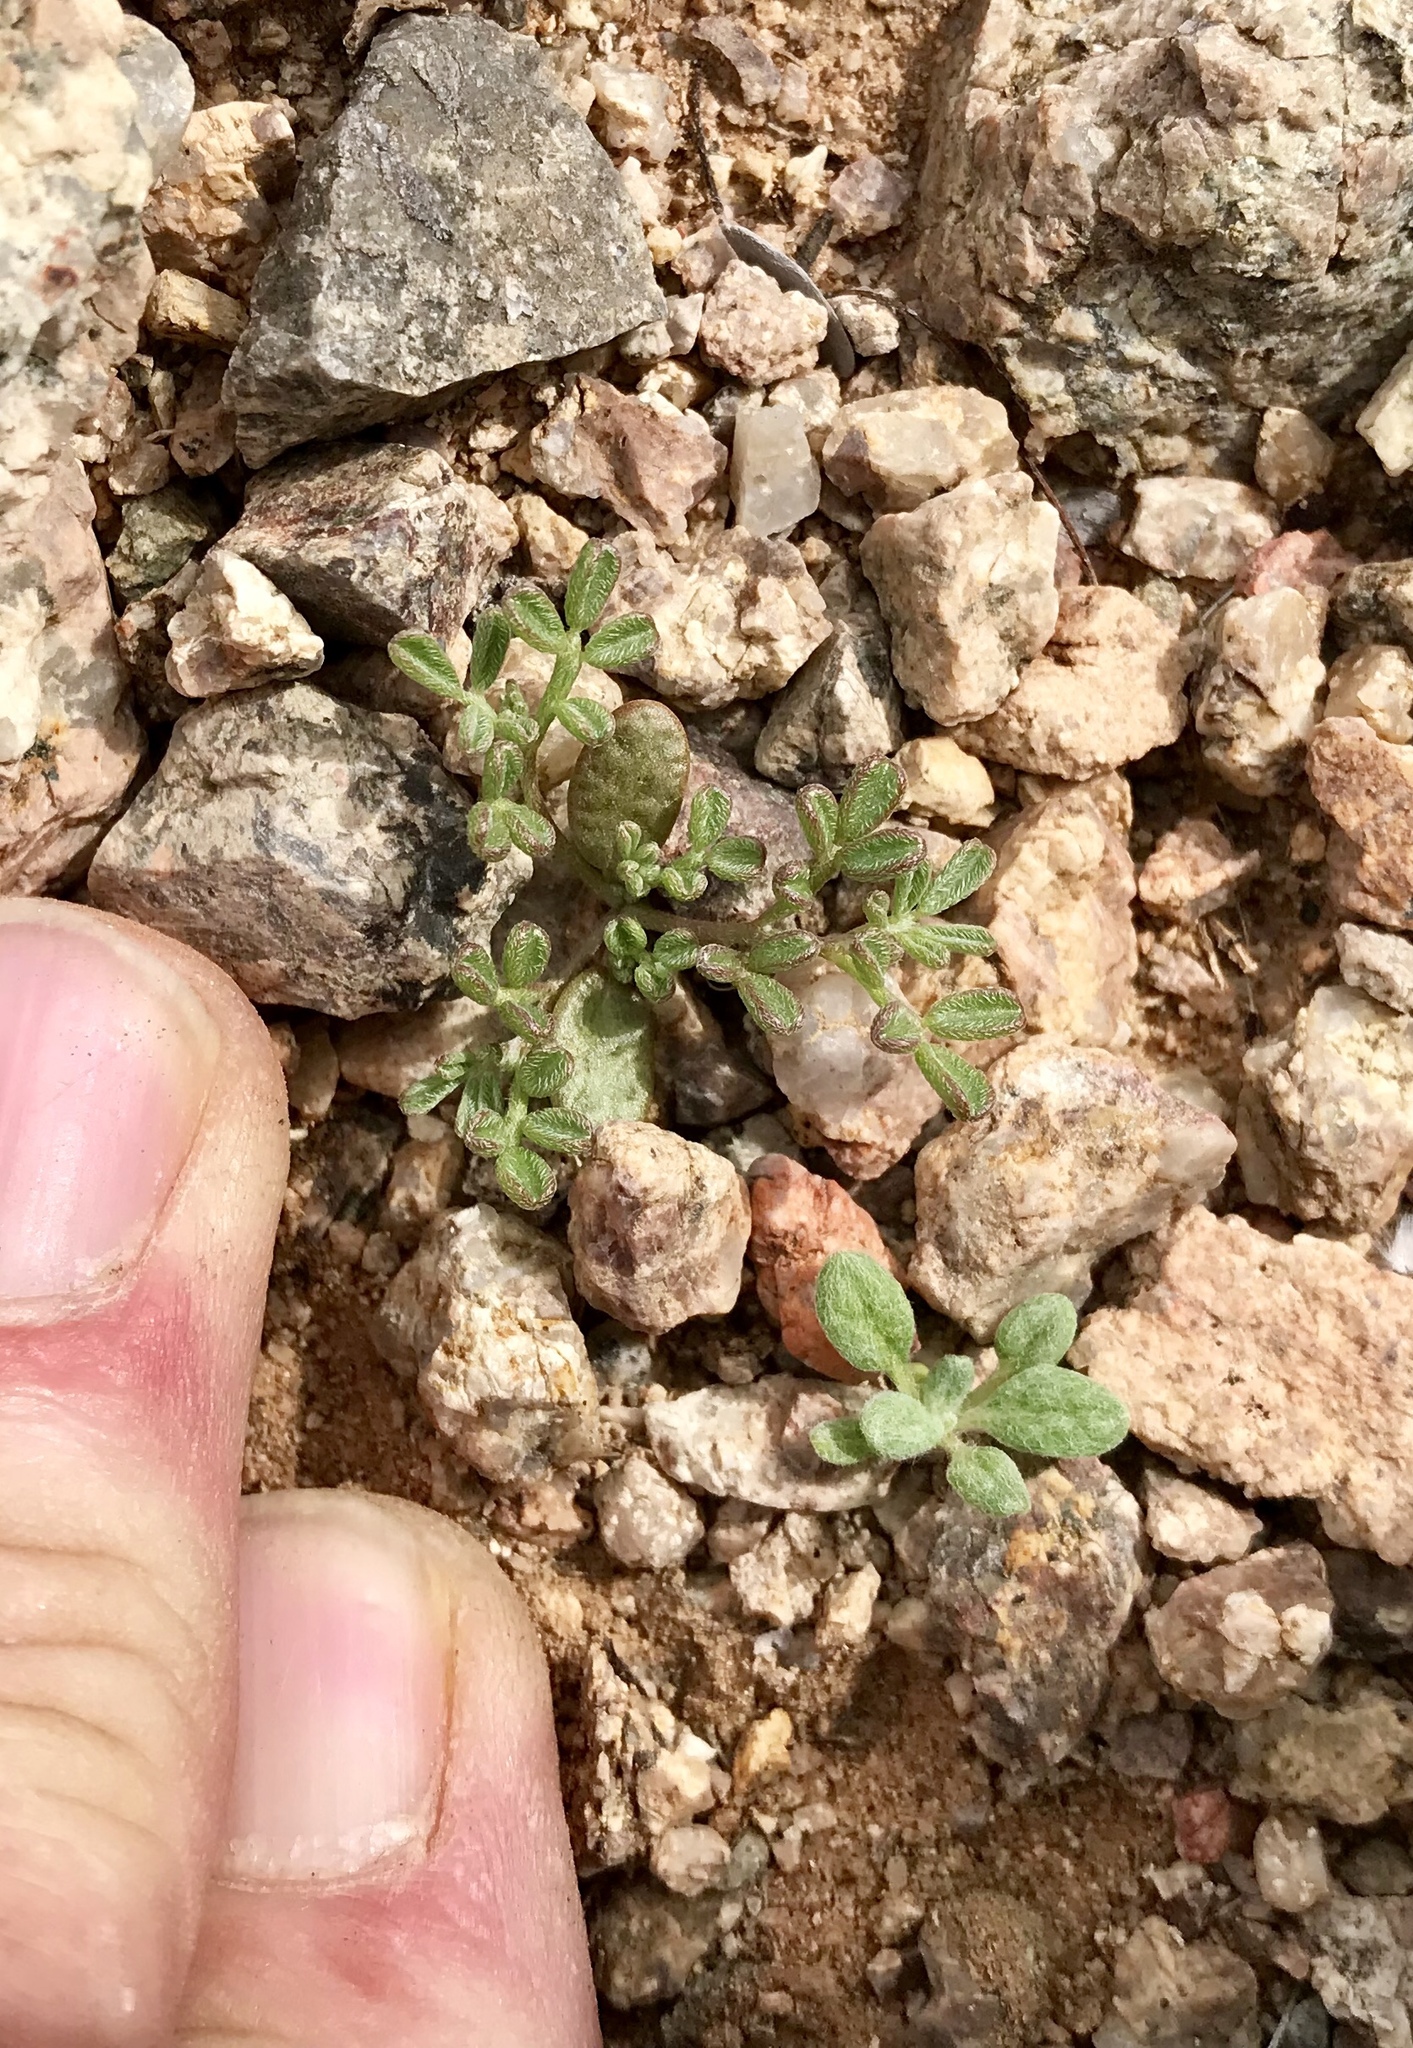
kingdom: Plantae
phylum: Tracheophyta
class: Magnoliopsida
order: Fabales
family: Fabaceae
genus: Acmispon
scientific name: Acmispon strigosus
